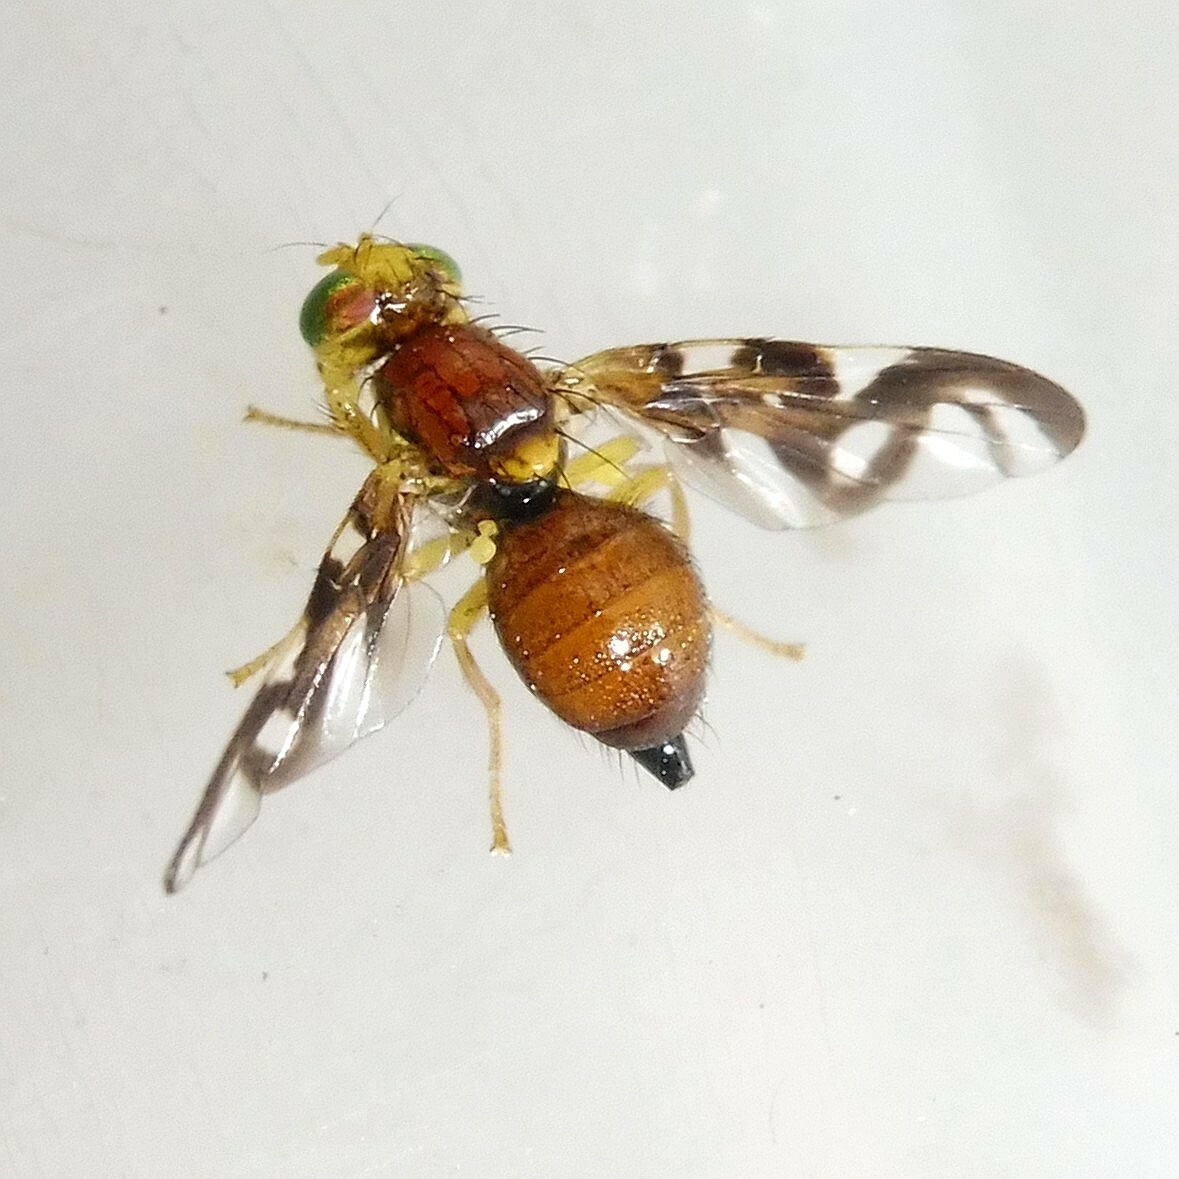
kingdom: Animalia
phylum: Arthropoda
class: Insecta
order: Diptera
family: Tephritidae
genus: Euleia
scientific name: Euleia heraclei
